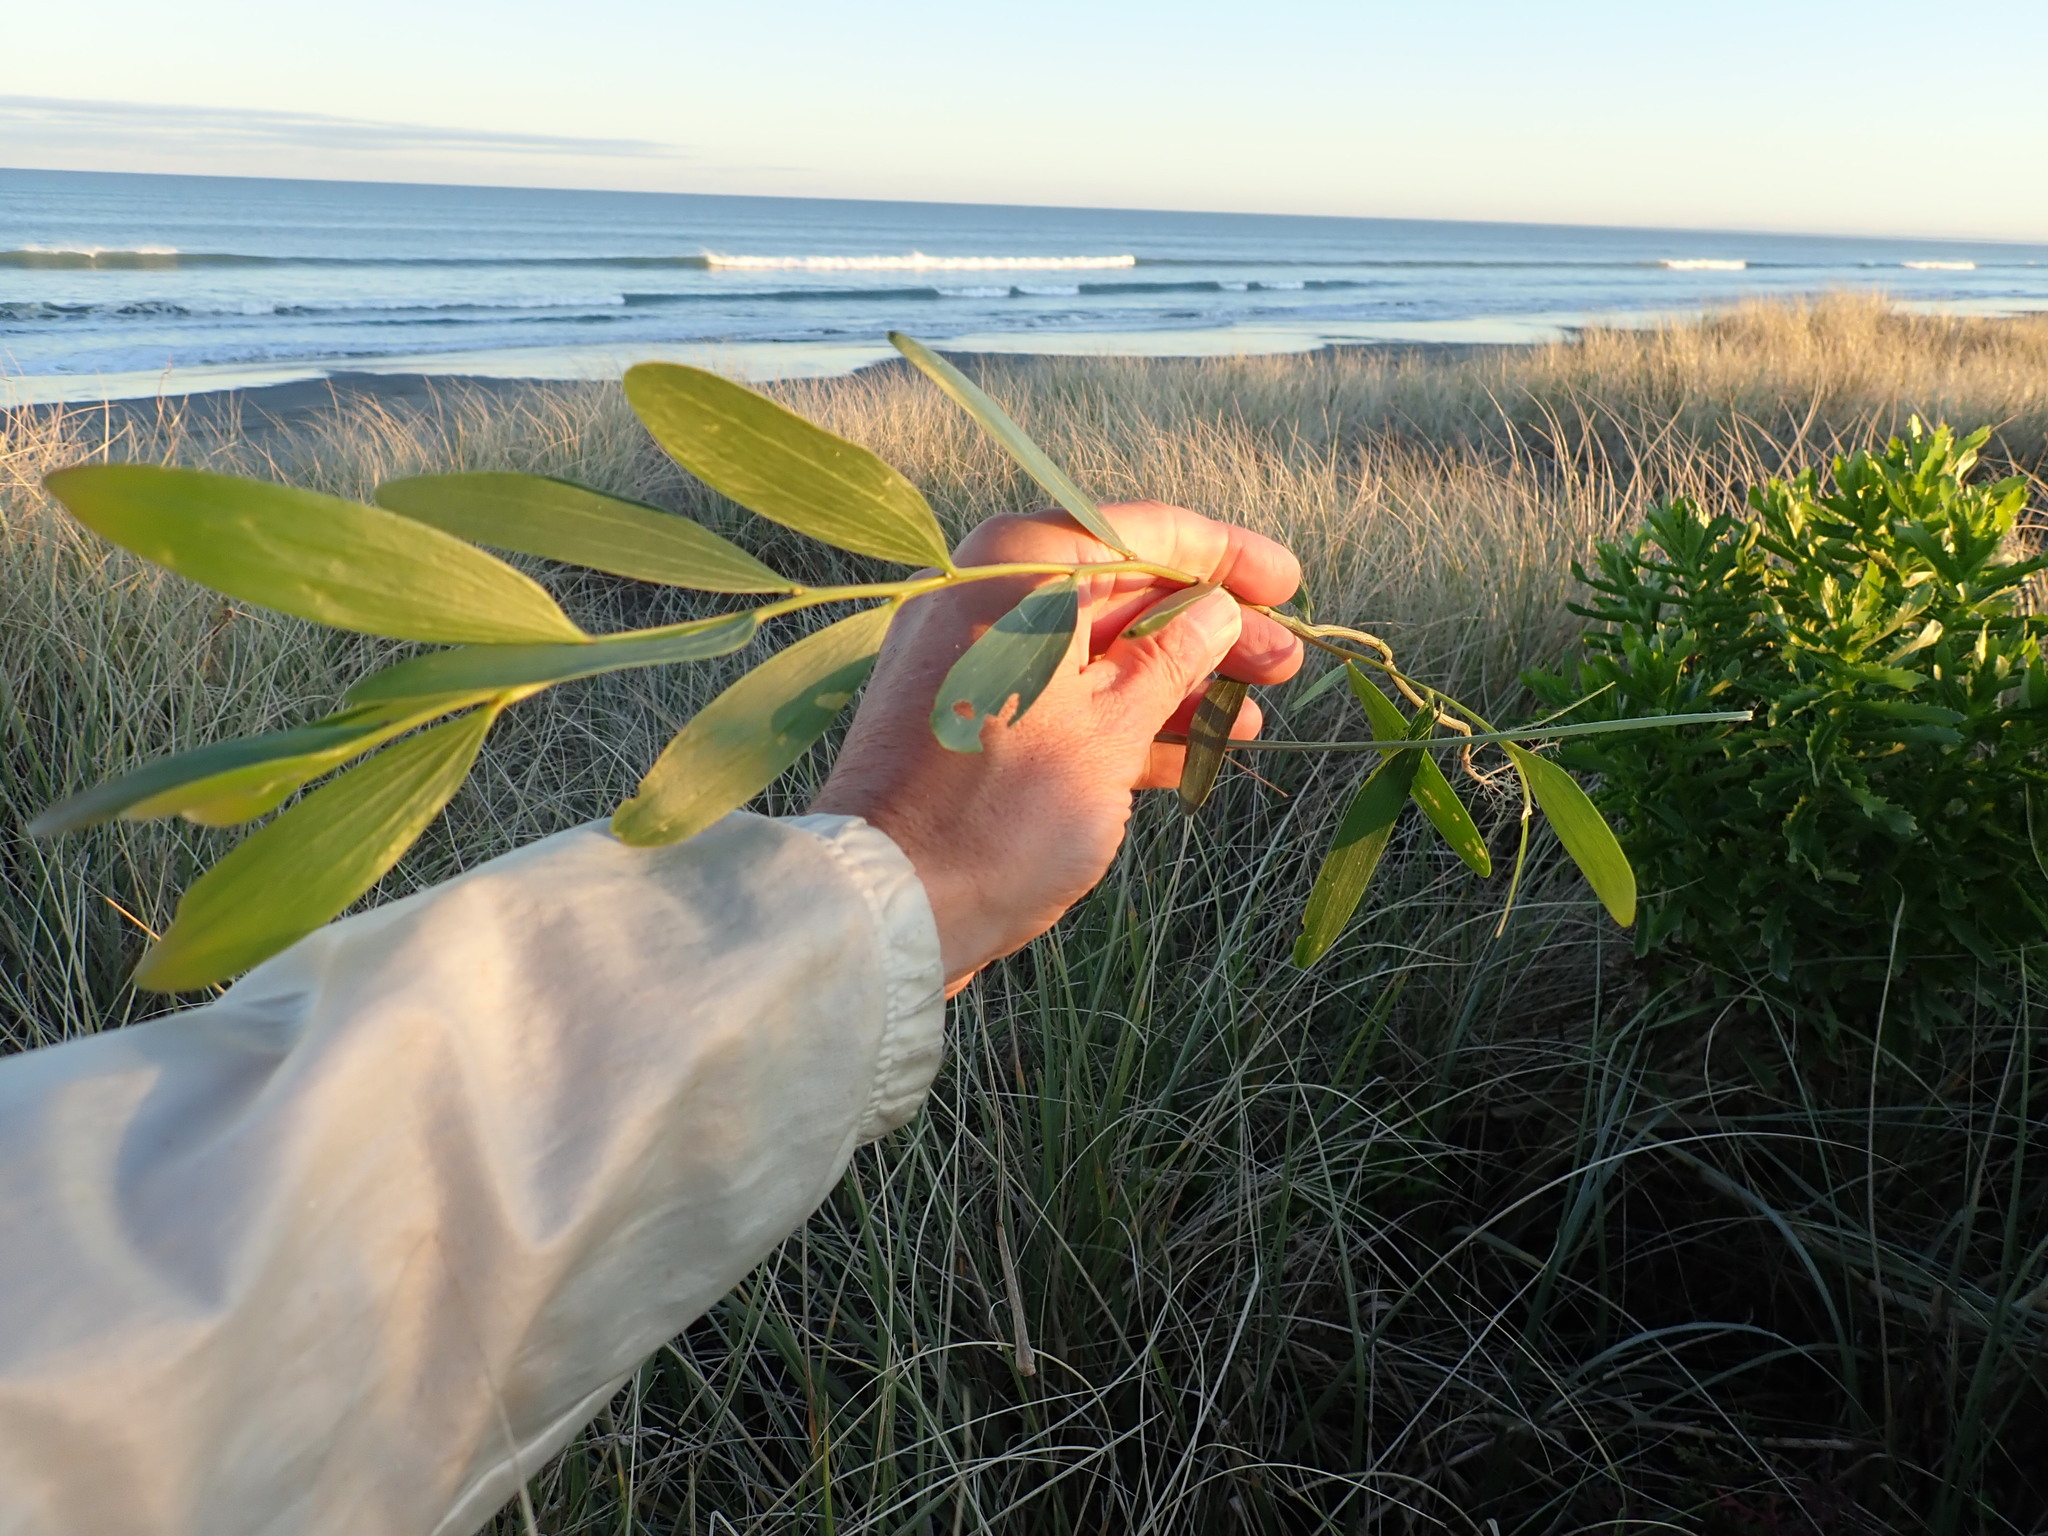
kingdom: Plantae
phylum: Tracheophyta
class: Magnoliopsida
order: Fabales
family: Fabaceae
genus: Acacia
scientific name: Acacia longifolia
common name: Sydney golden wattle
